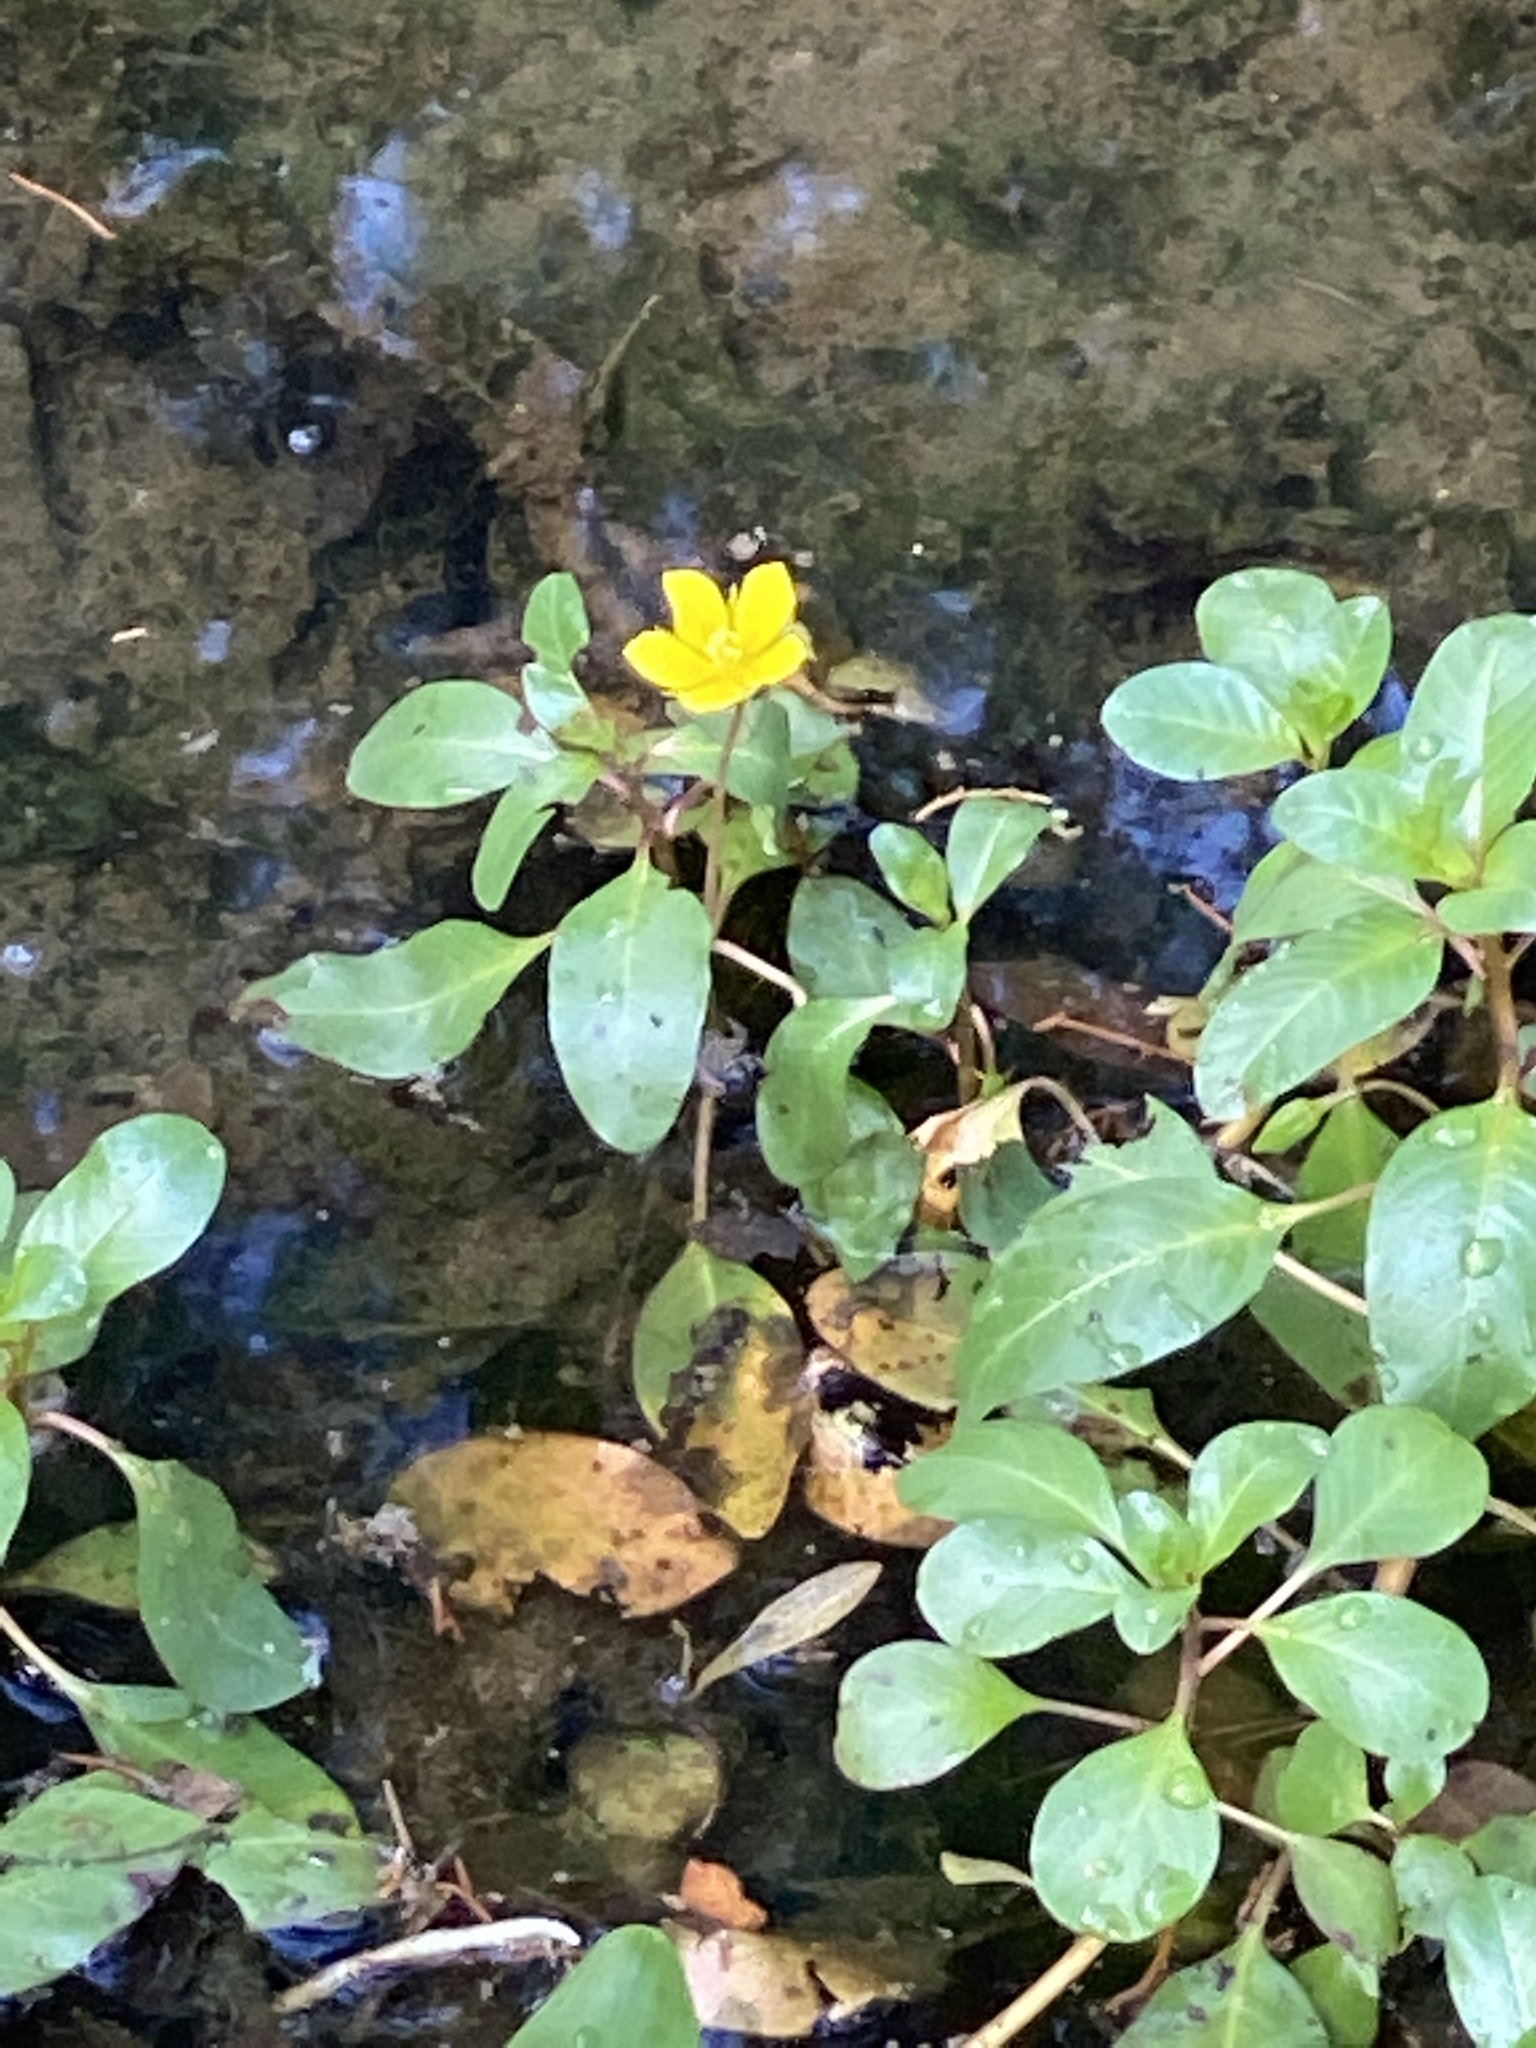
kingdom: Plantae
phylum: Tracheophyta
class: Magnoliopsida
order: Myrtales
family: Onagraceae
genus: Ludwigia
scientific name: Ludwigia hexapetala
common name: Water-primrose
